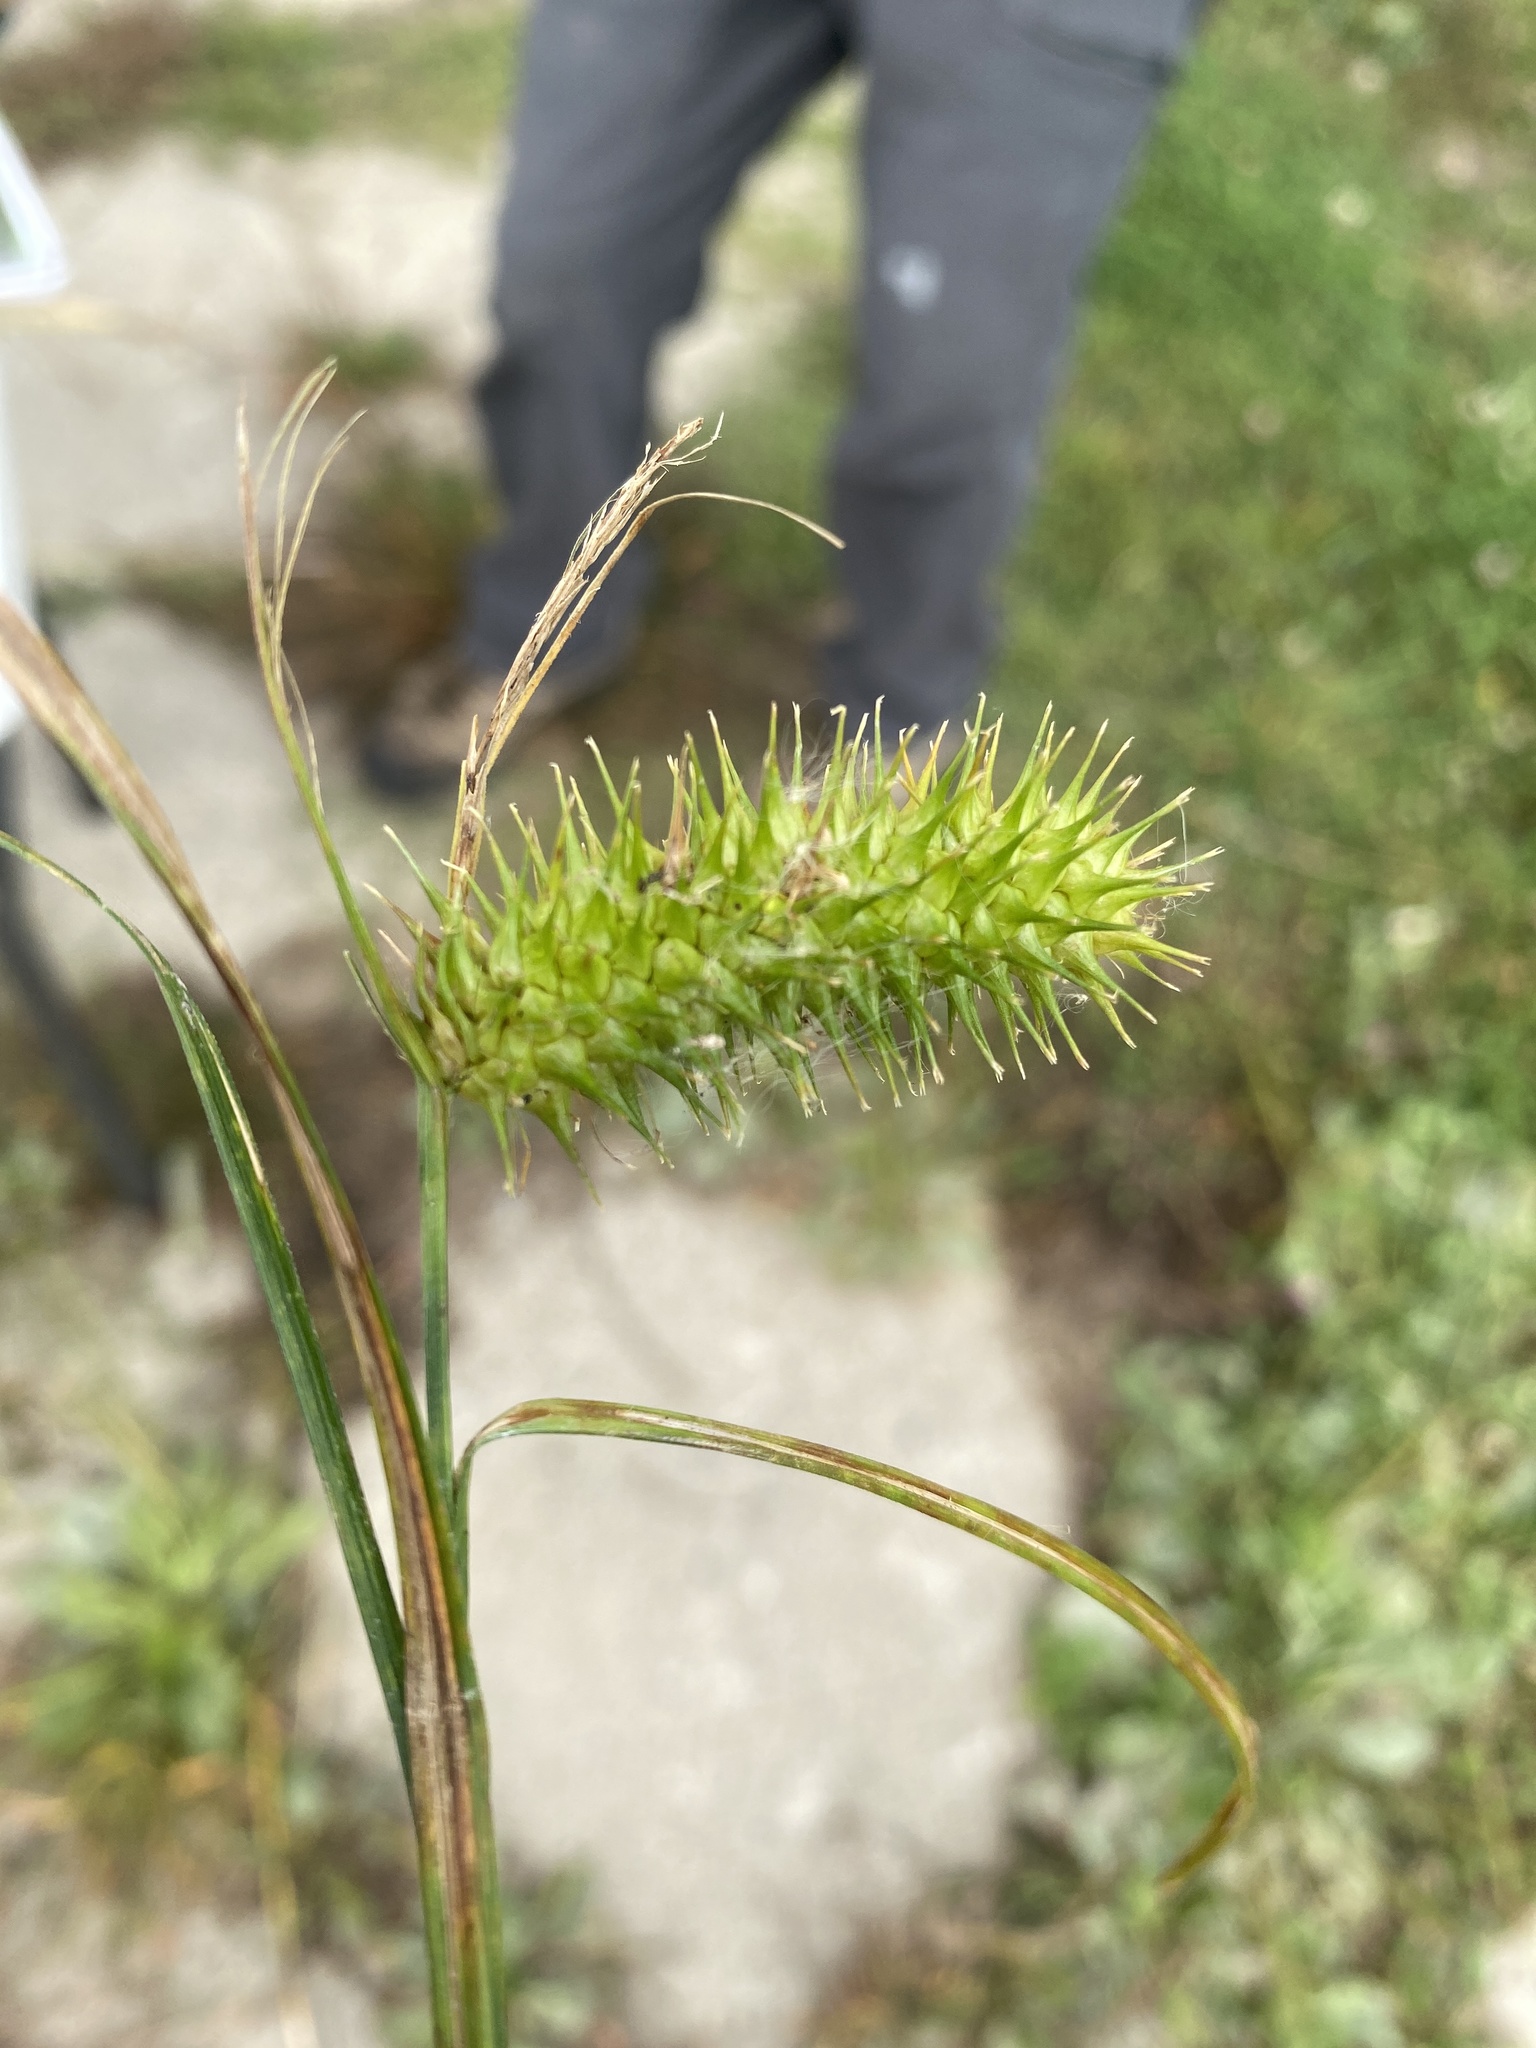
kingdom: Plantae
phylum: Tracheophyta
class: Liliopsida
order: Poales
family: Cyperaceae
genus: Carex
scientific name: Carex lurida
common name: Sallow sedge
